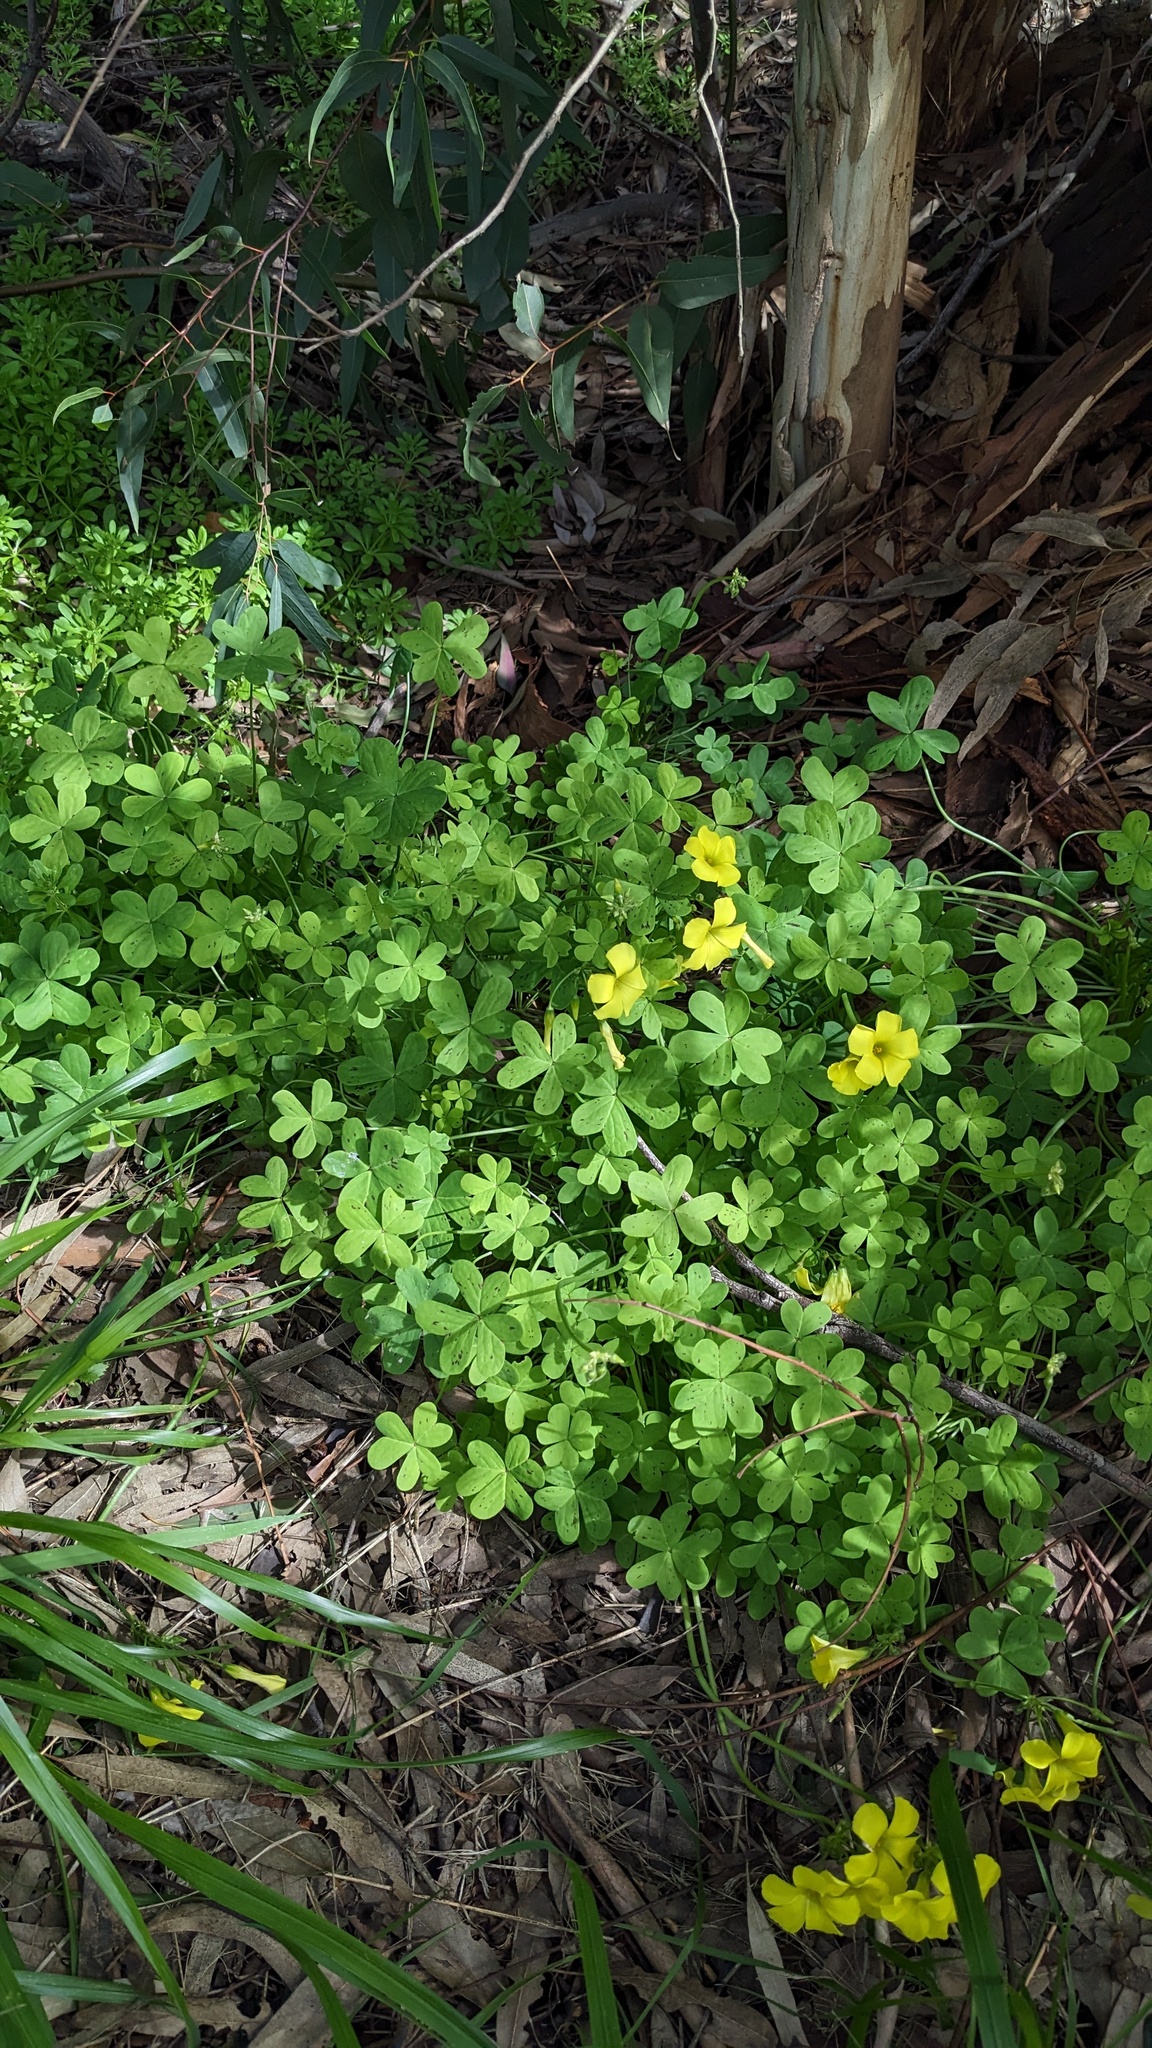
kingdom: Plantae
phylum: Tracheophyta
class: Magnoliopsida
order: Oxalidales
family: Oxalidaceae
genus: Oxalis
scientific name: Oxalis pes-caprae
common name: Bermuda-buttercup
